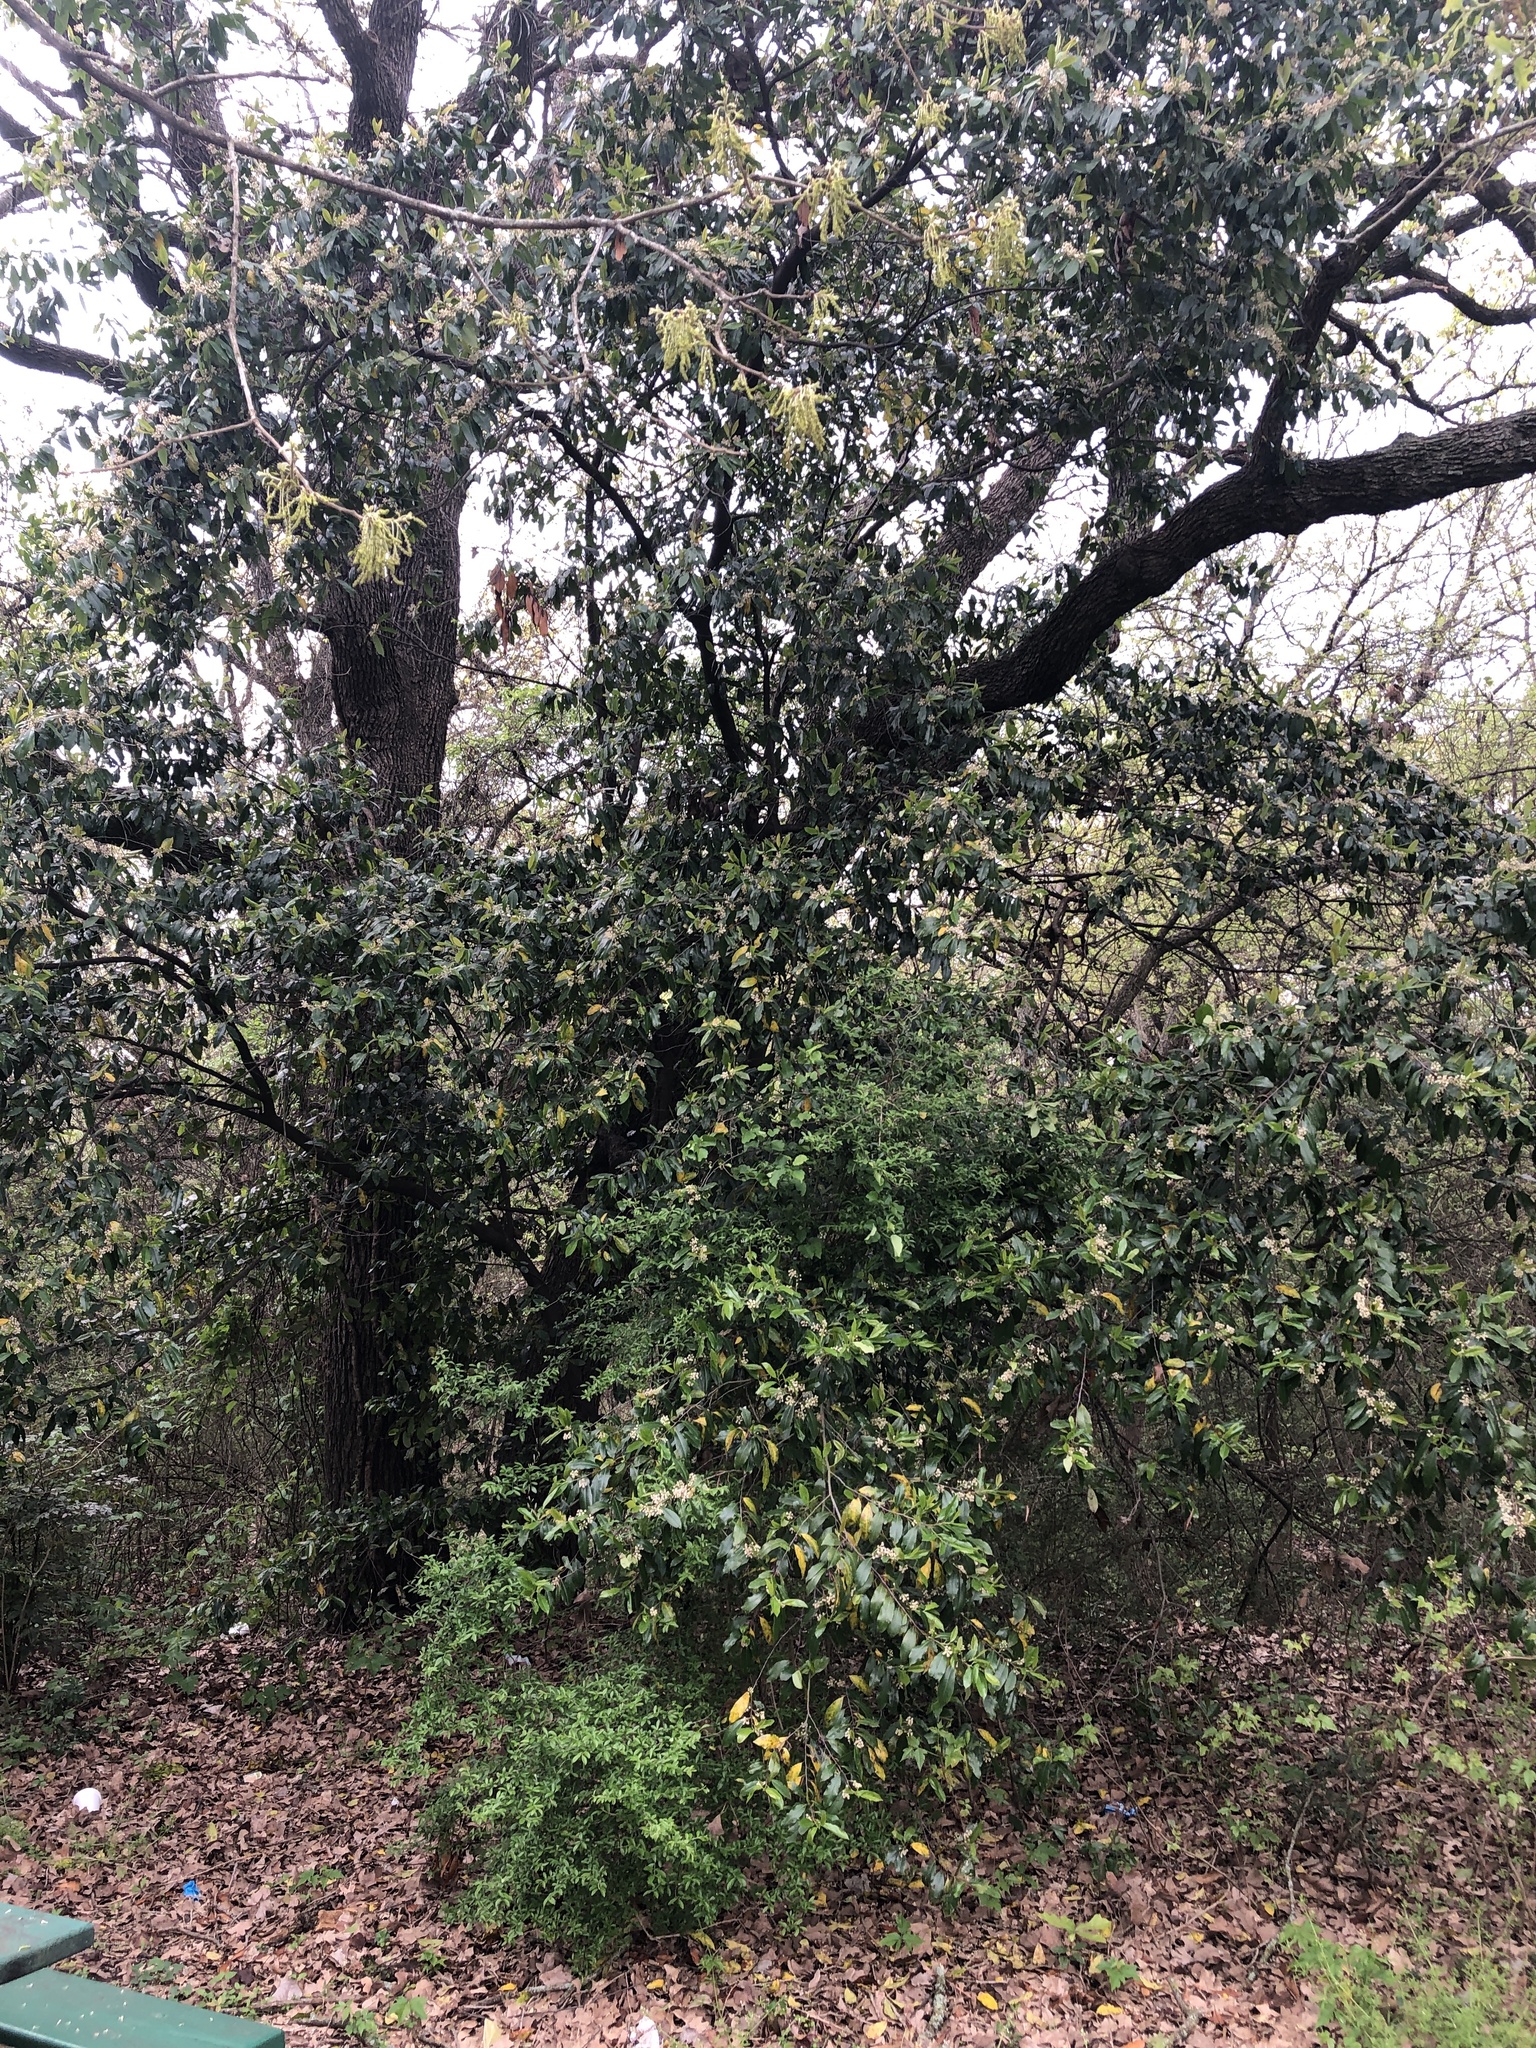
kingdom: Plantae
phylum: Tracheophyta
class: Magnoliopsida
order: Rosales
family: Rosaceae
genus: Prunus
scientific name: Prunus caroliniana
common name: Carolina laurel cherry
